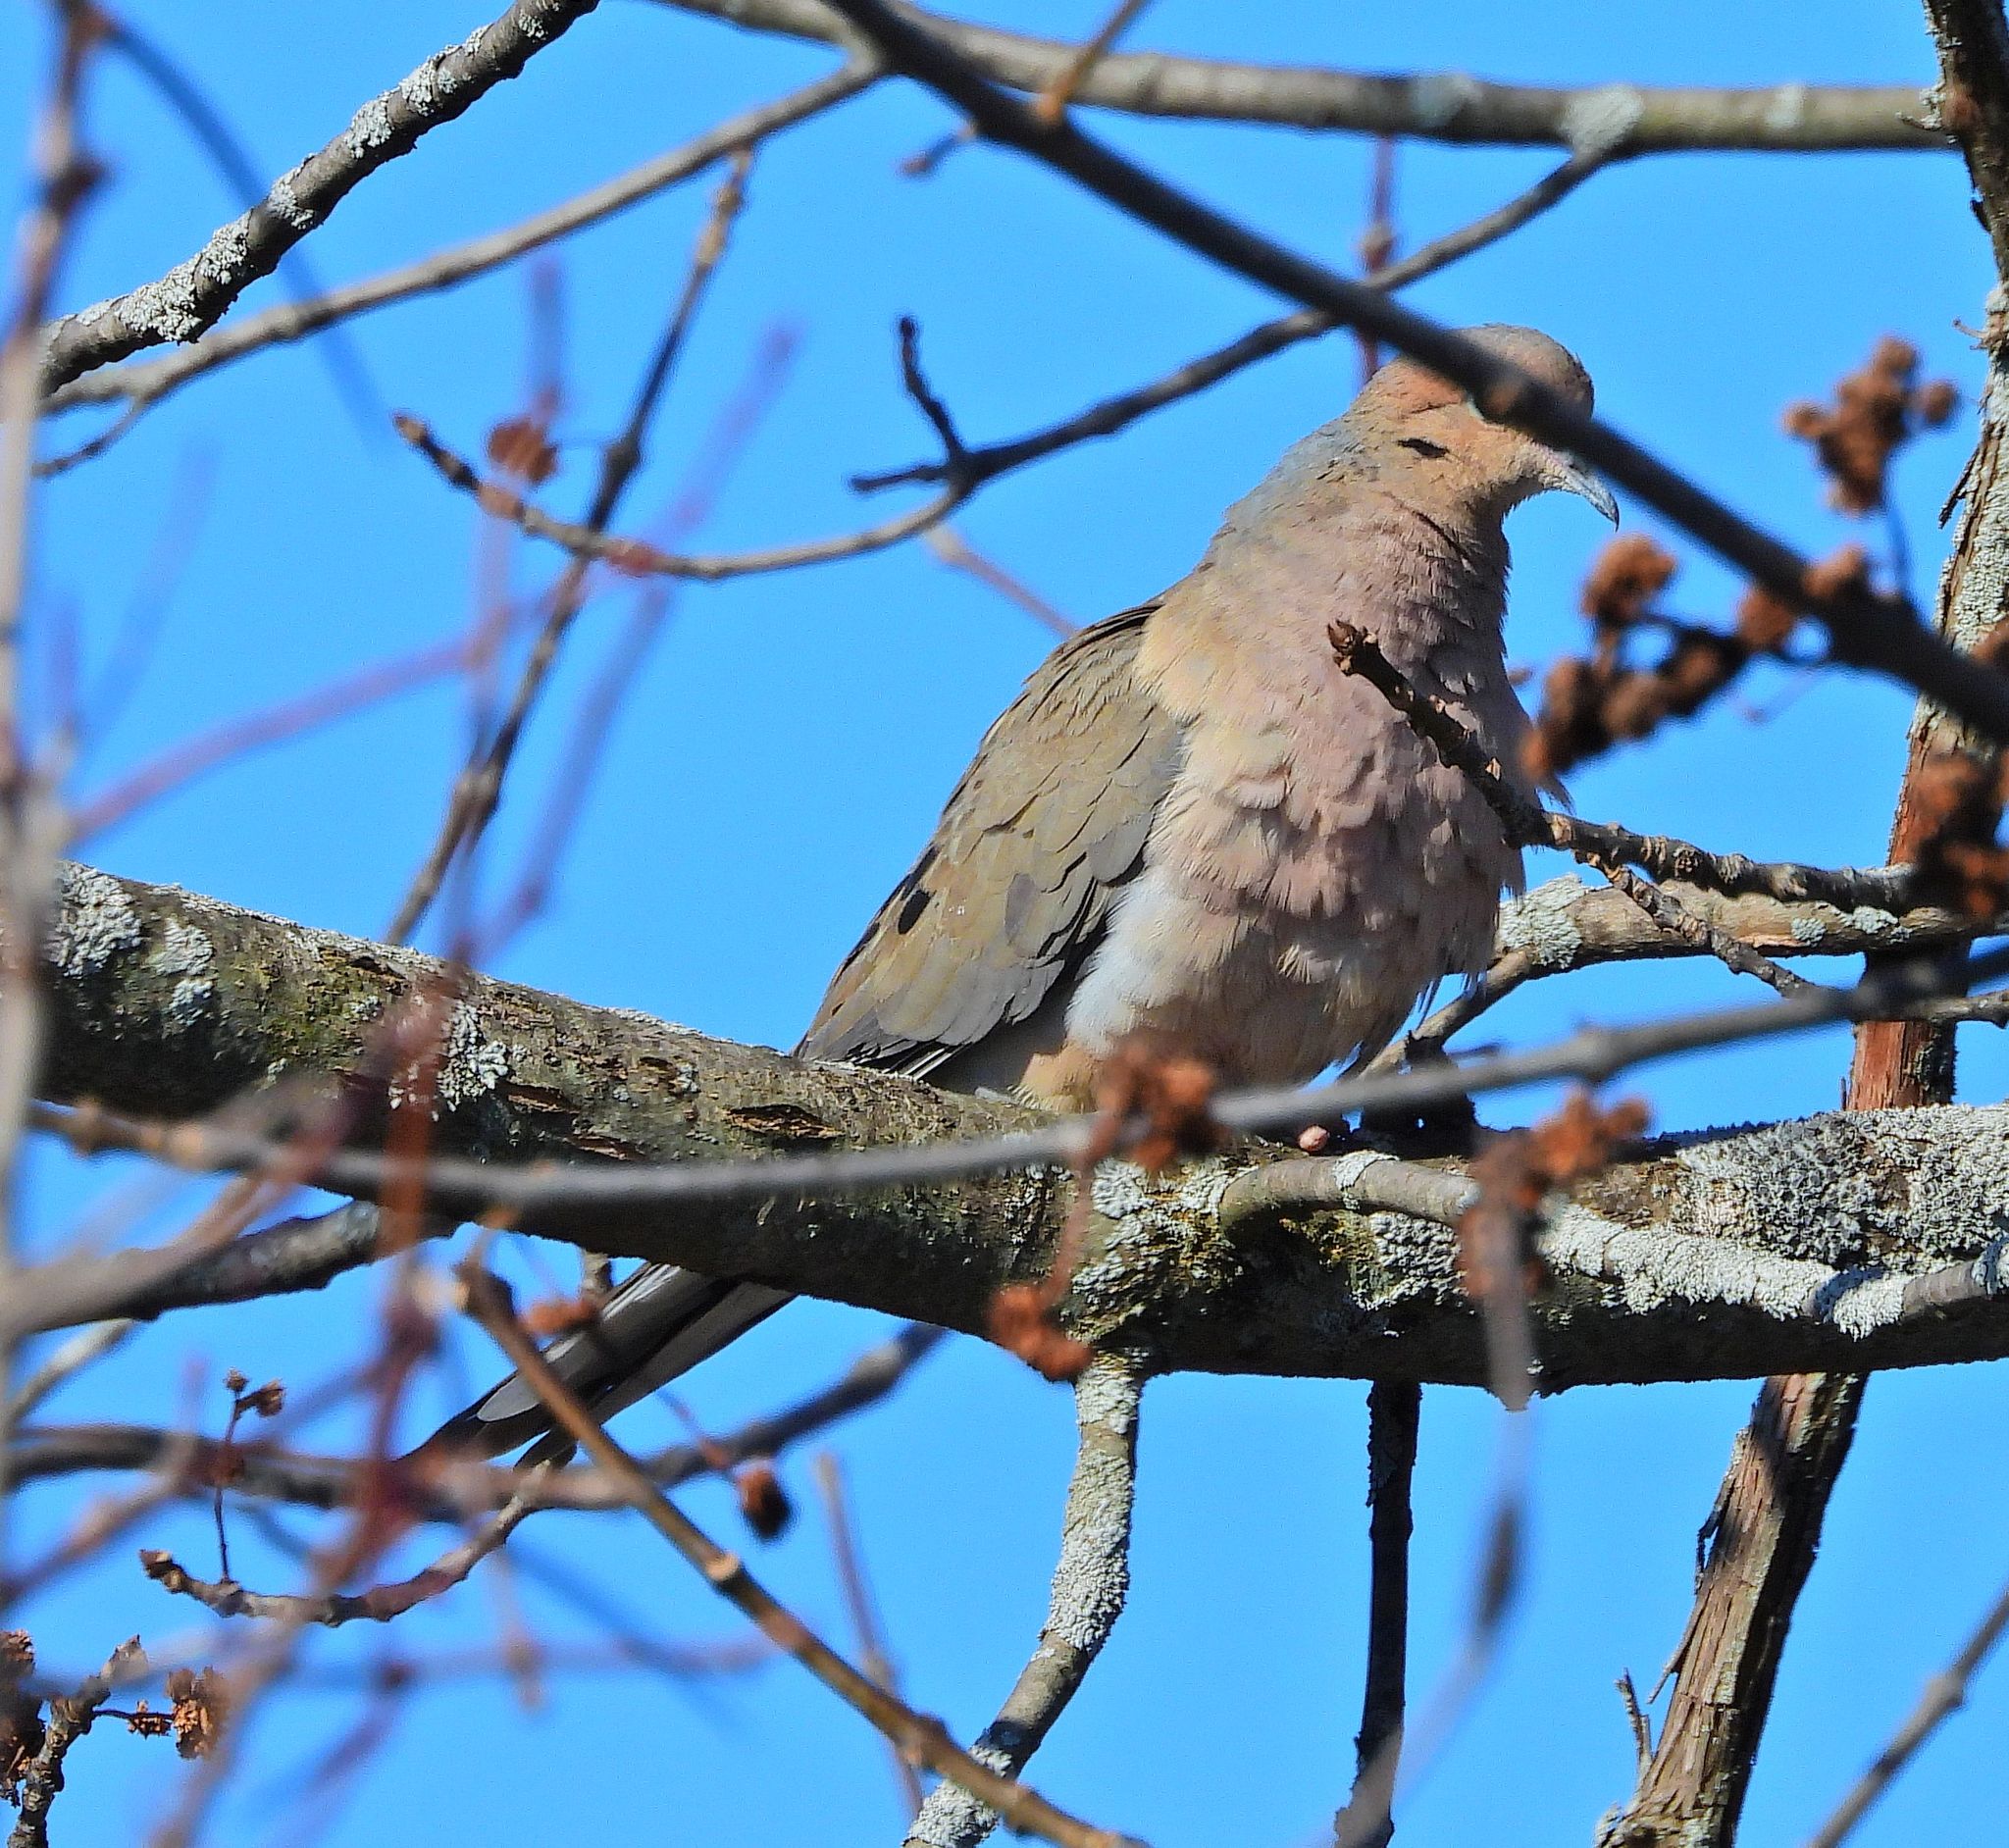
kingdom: Animalia
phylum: Chordata
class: Aves
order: Columbiformes
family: Columbidae
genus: Zenaida
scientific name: Zenaida macroura
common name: Mourning dove
